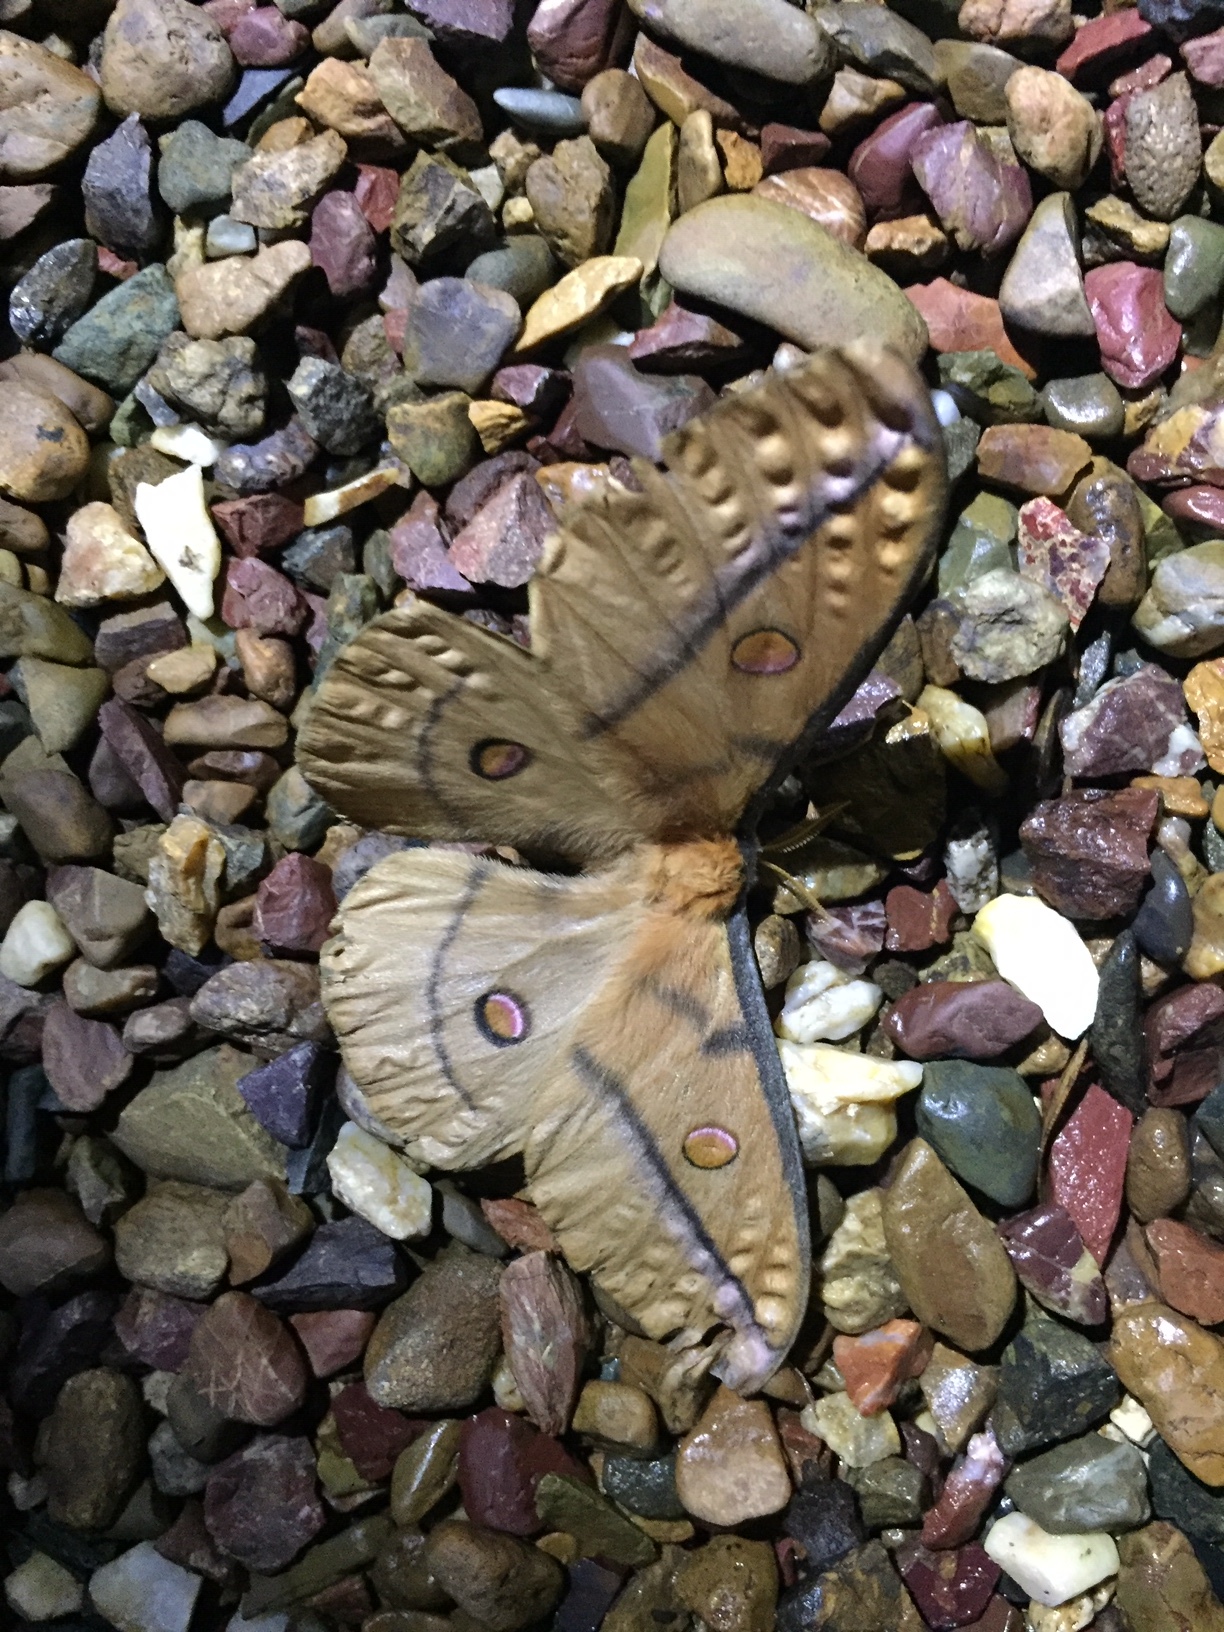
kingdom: Animalia
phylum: Arthropoda
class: Insecta
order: Lepidoptera
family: Saturniidae
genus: Opodiphthera
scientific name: Opodiphthera astrophela
